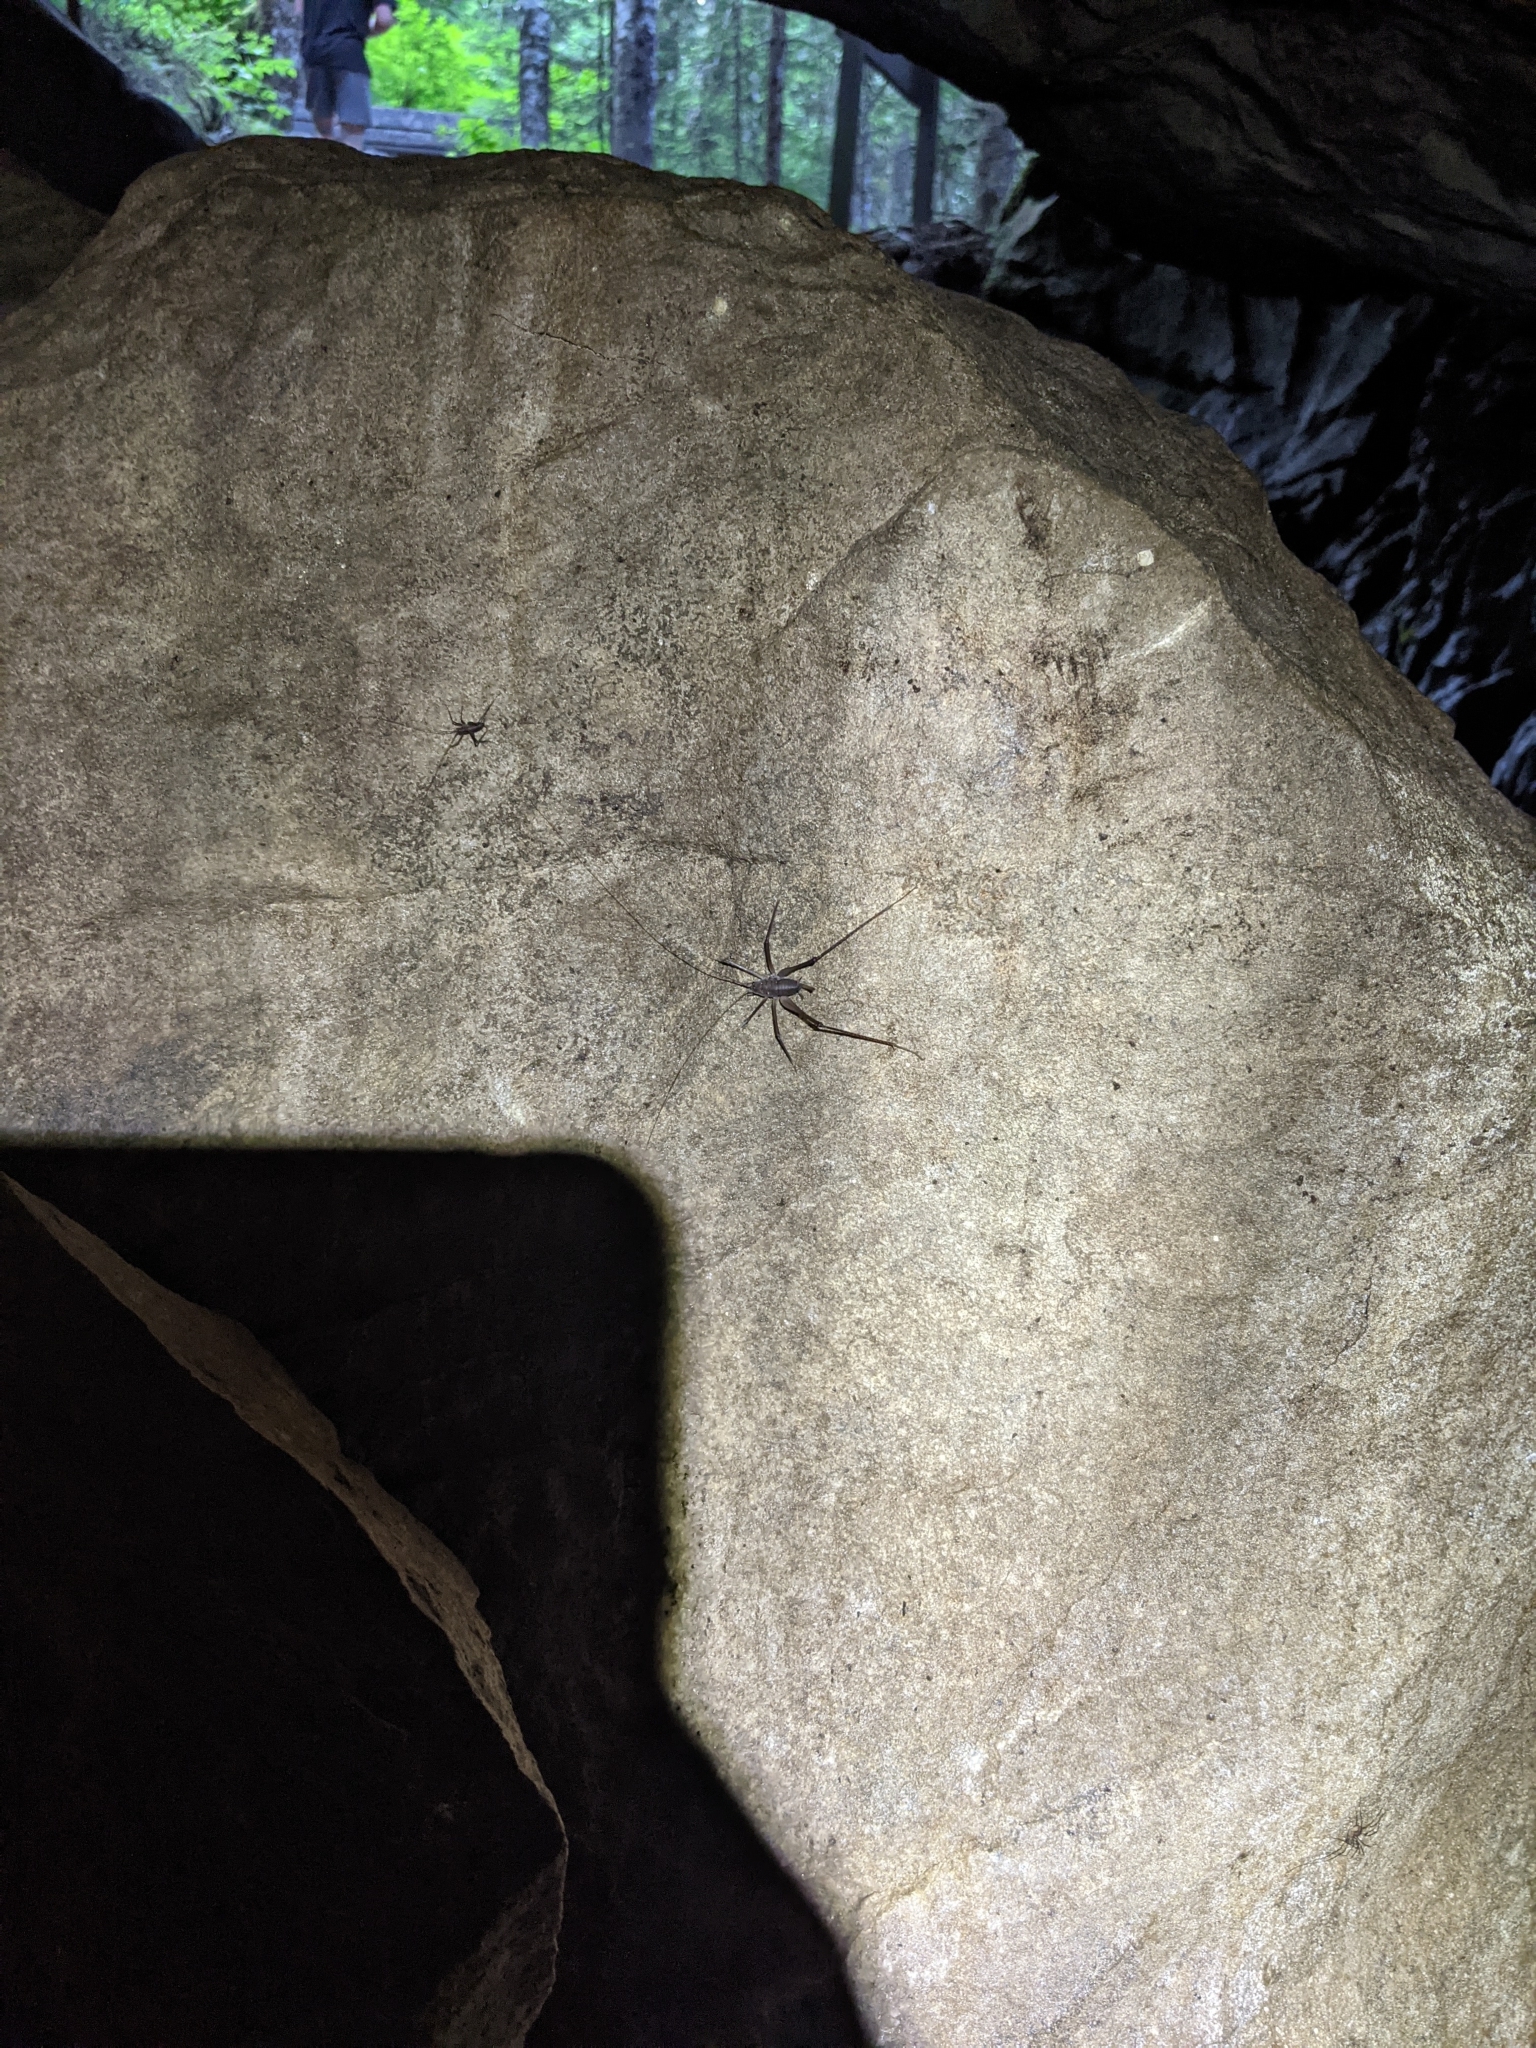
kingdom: Animalia
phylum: Arthropoda
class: Insecta
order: Orthoptera
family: Rhaphidophoridae
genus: Tropidischia
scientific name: Tropidischia xanthostoma
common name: Square-legged camel cricket
